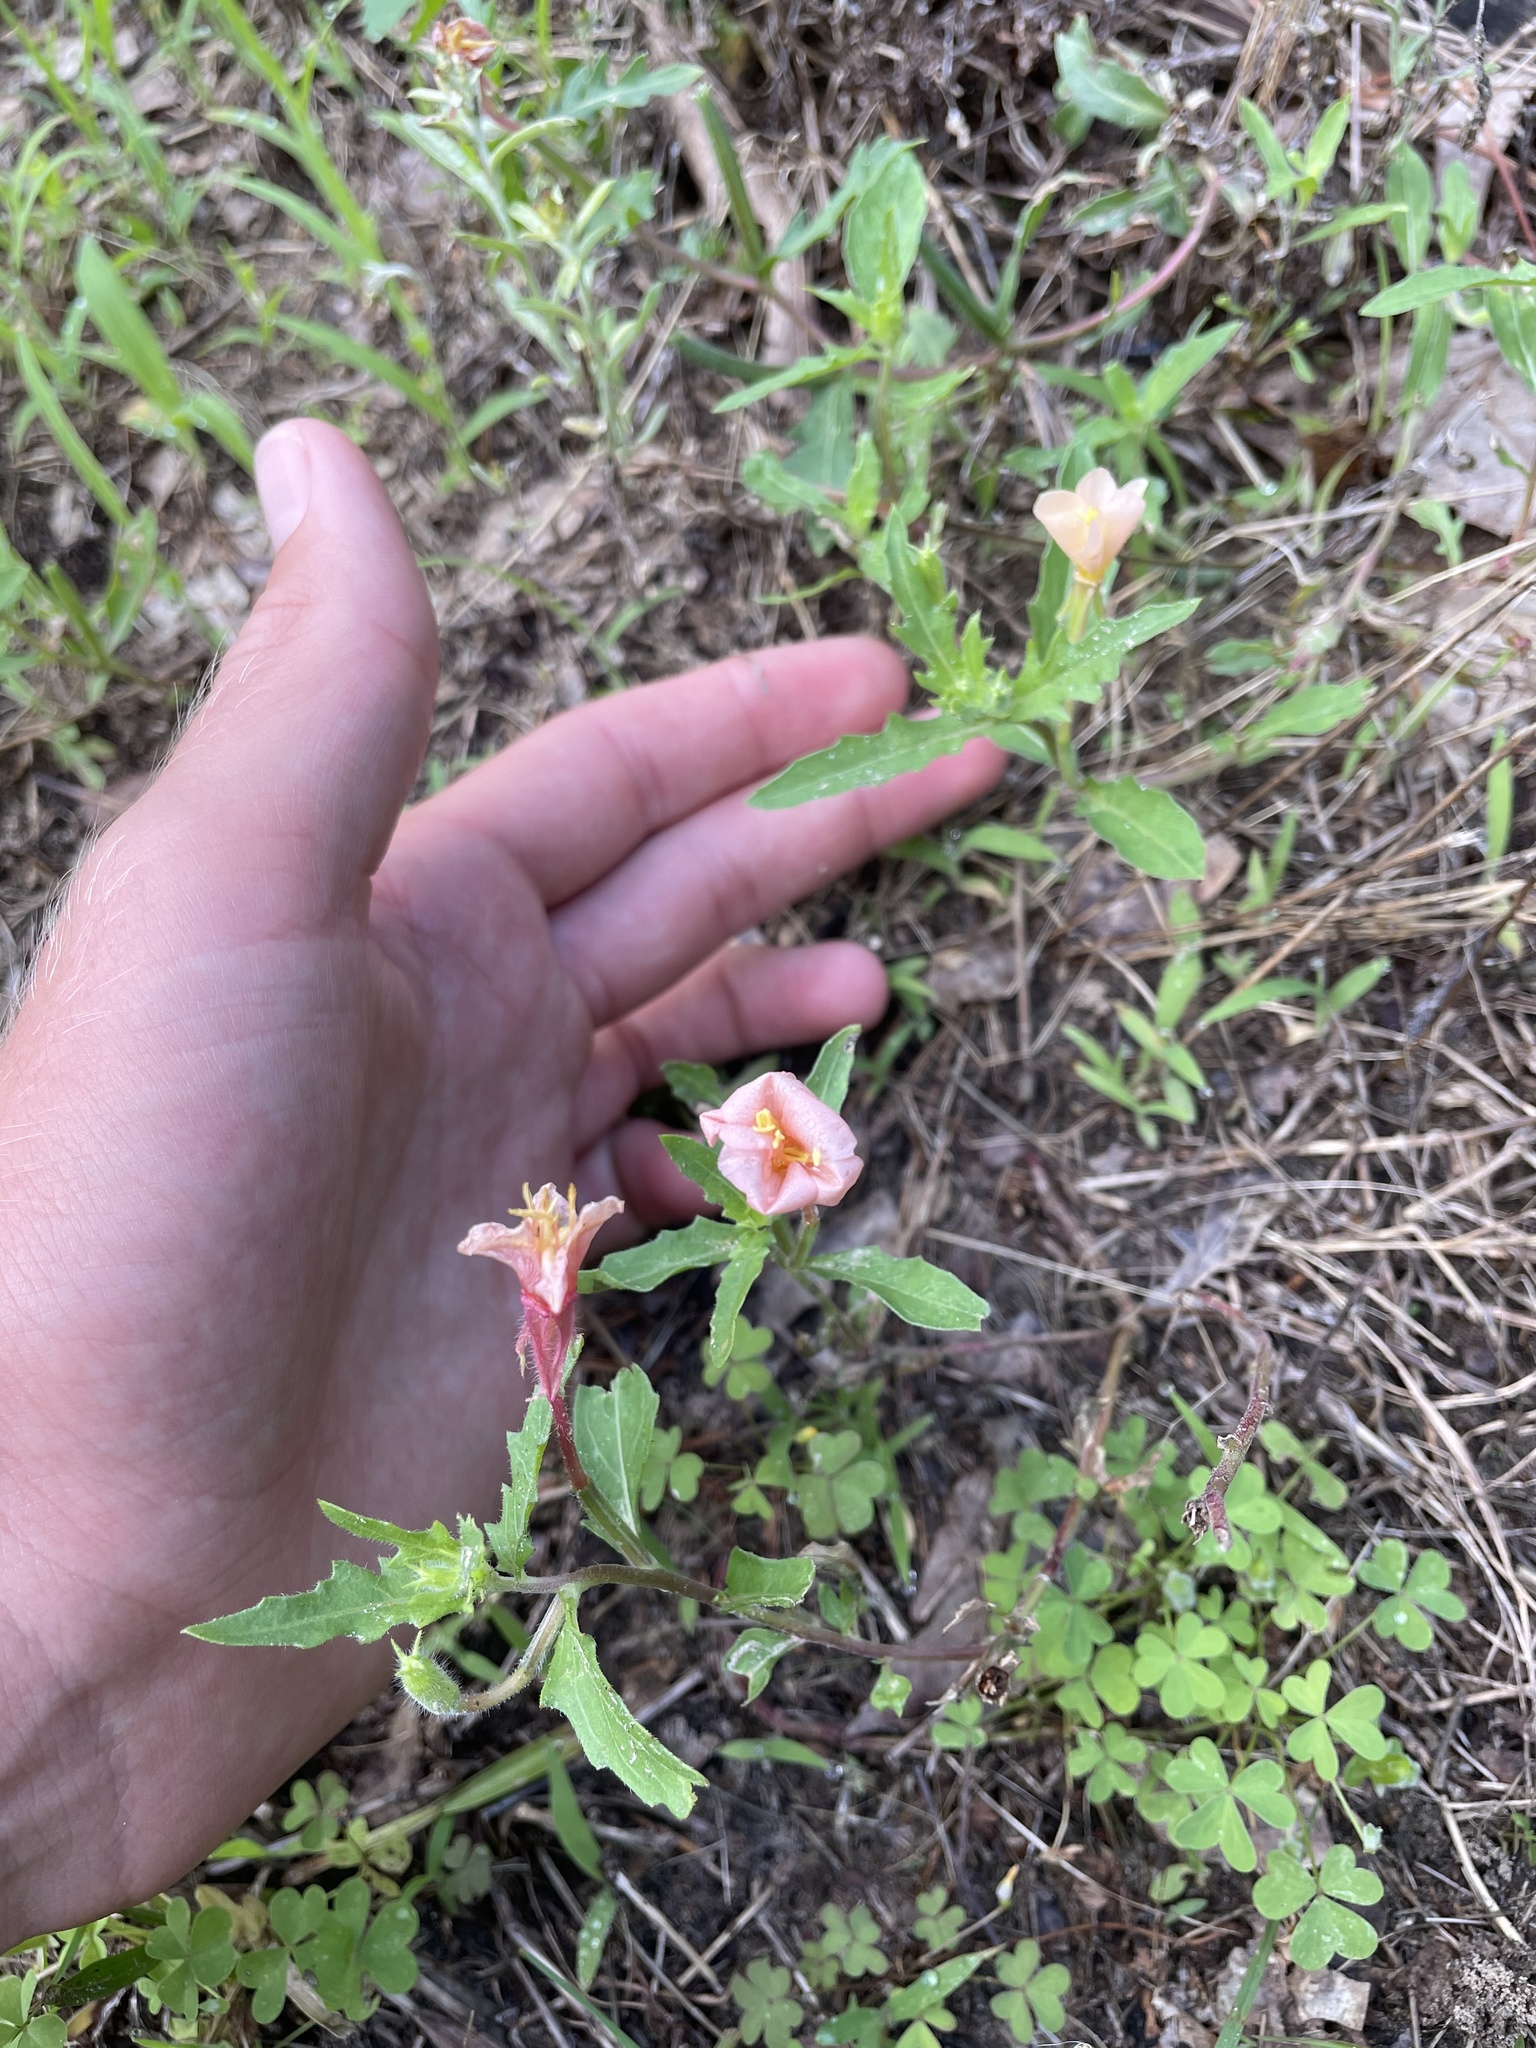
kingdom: Plantae
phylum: Tracheophyta
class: Magnoliopsida
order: Myrtales
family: Onagraceae
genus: Oenothera
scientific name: Oenothera laciniata
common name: Cut-leaved evening-primrose
